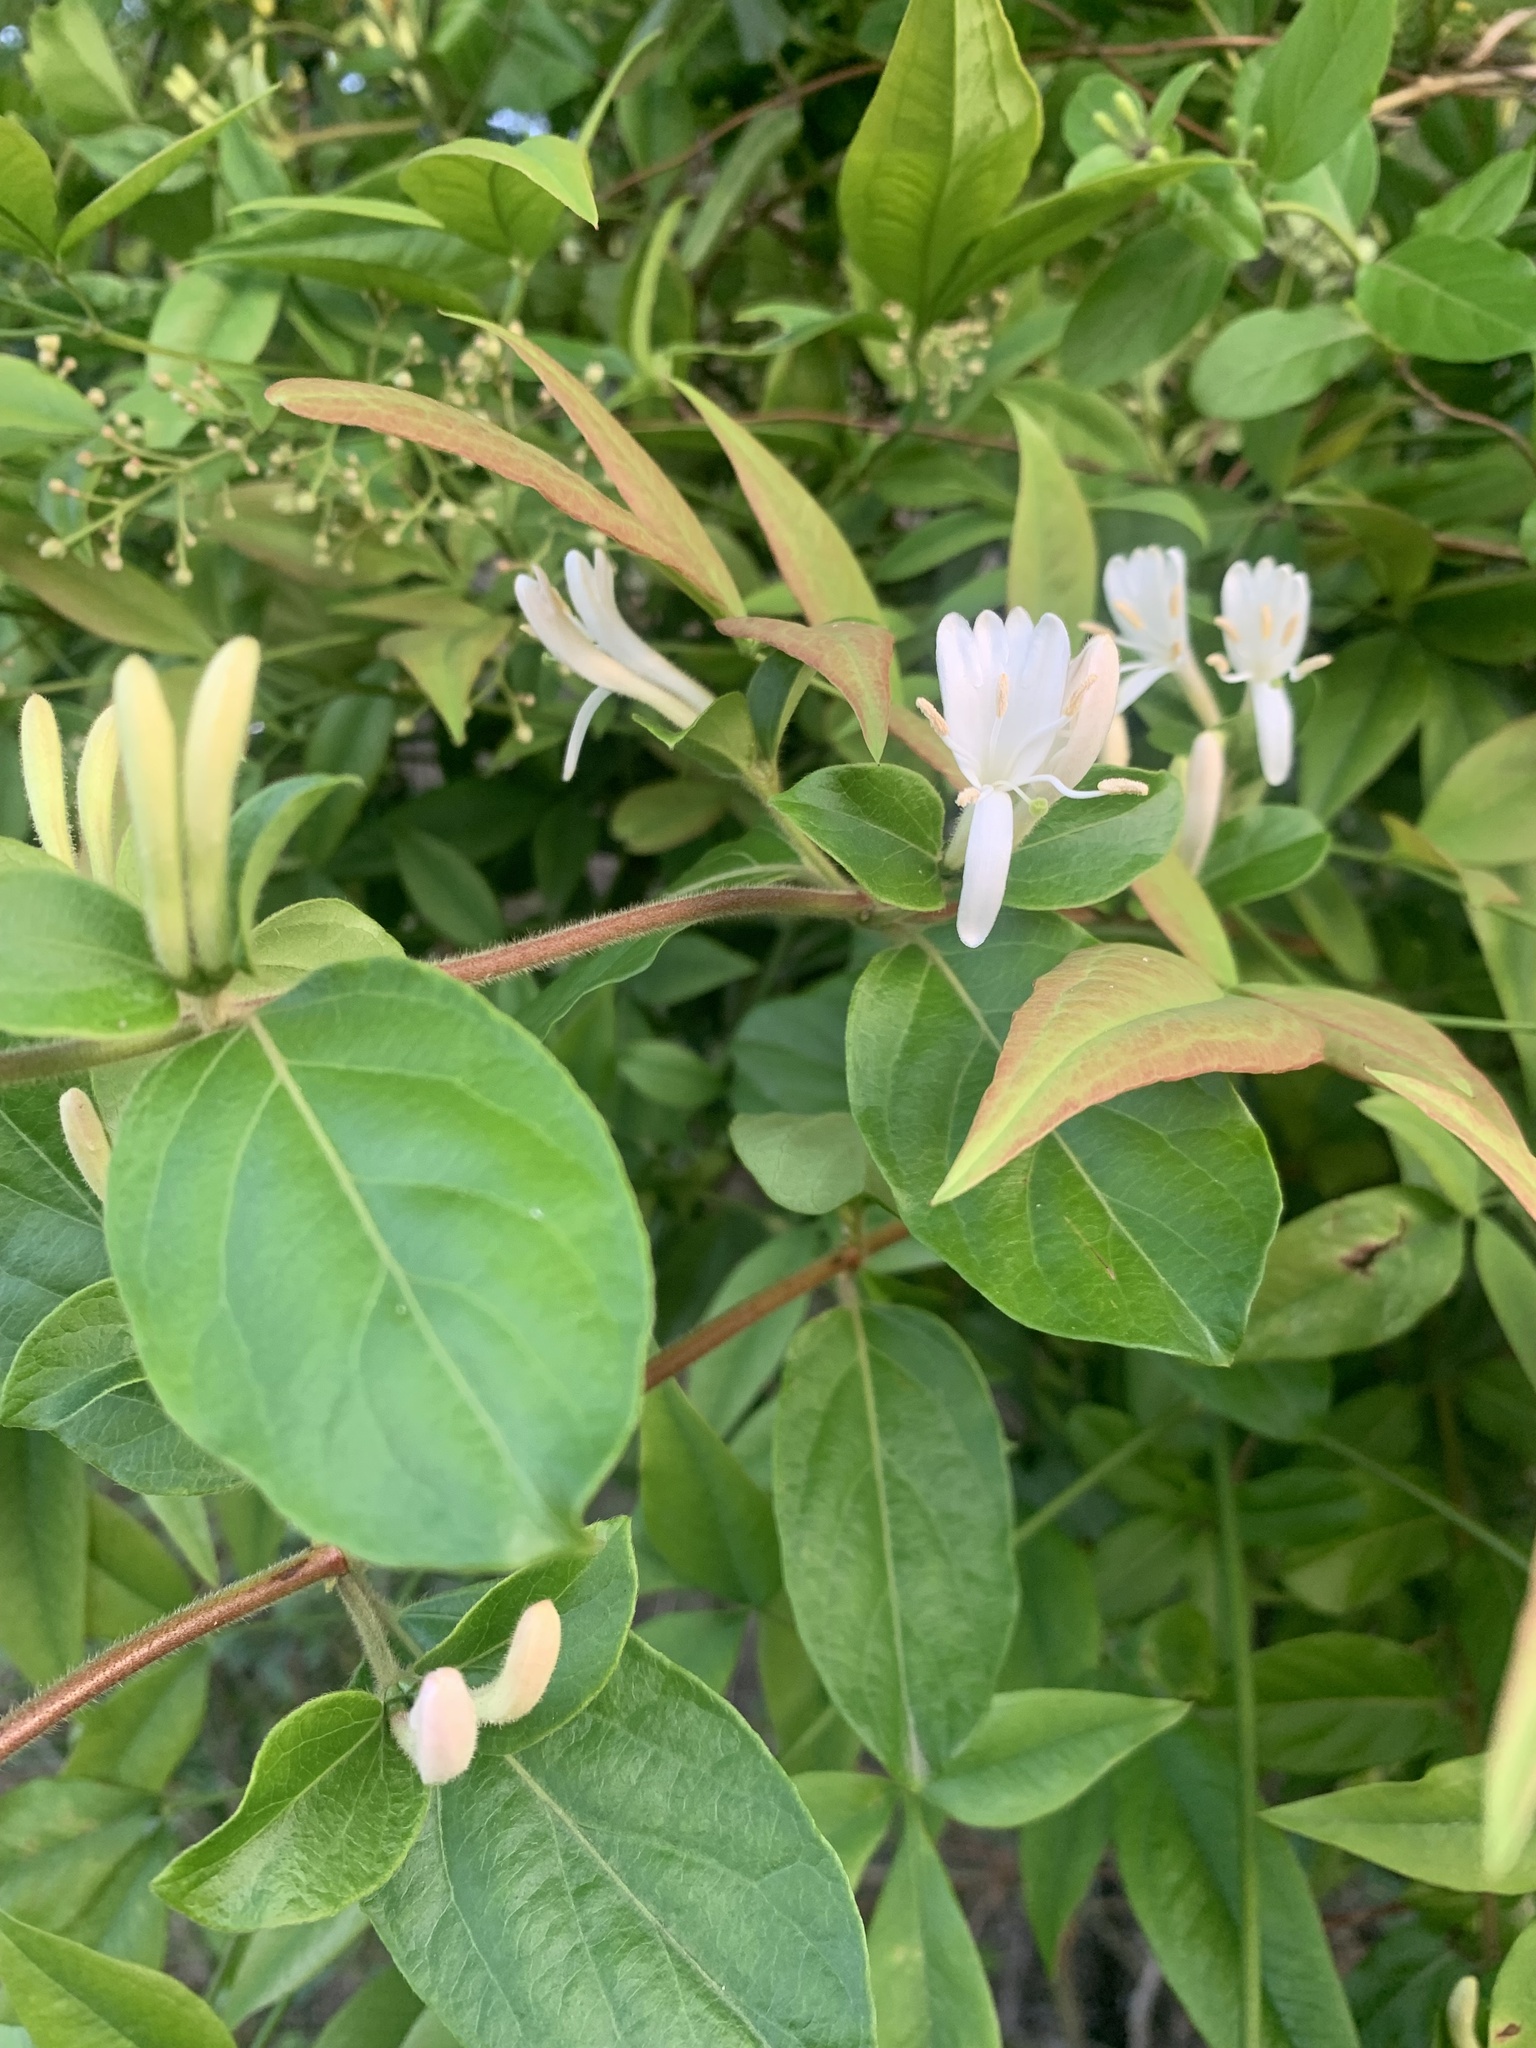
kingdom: Plantae
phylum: Tracheophyta
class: Magnoliopsida
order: Dipsacales
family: Caprifoliaceae
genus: Lonicera
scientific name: Lonicera japonica
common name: Japanese honeysuckle
